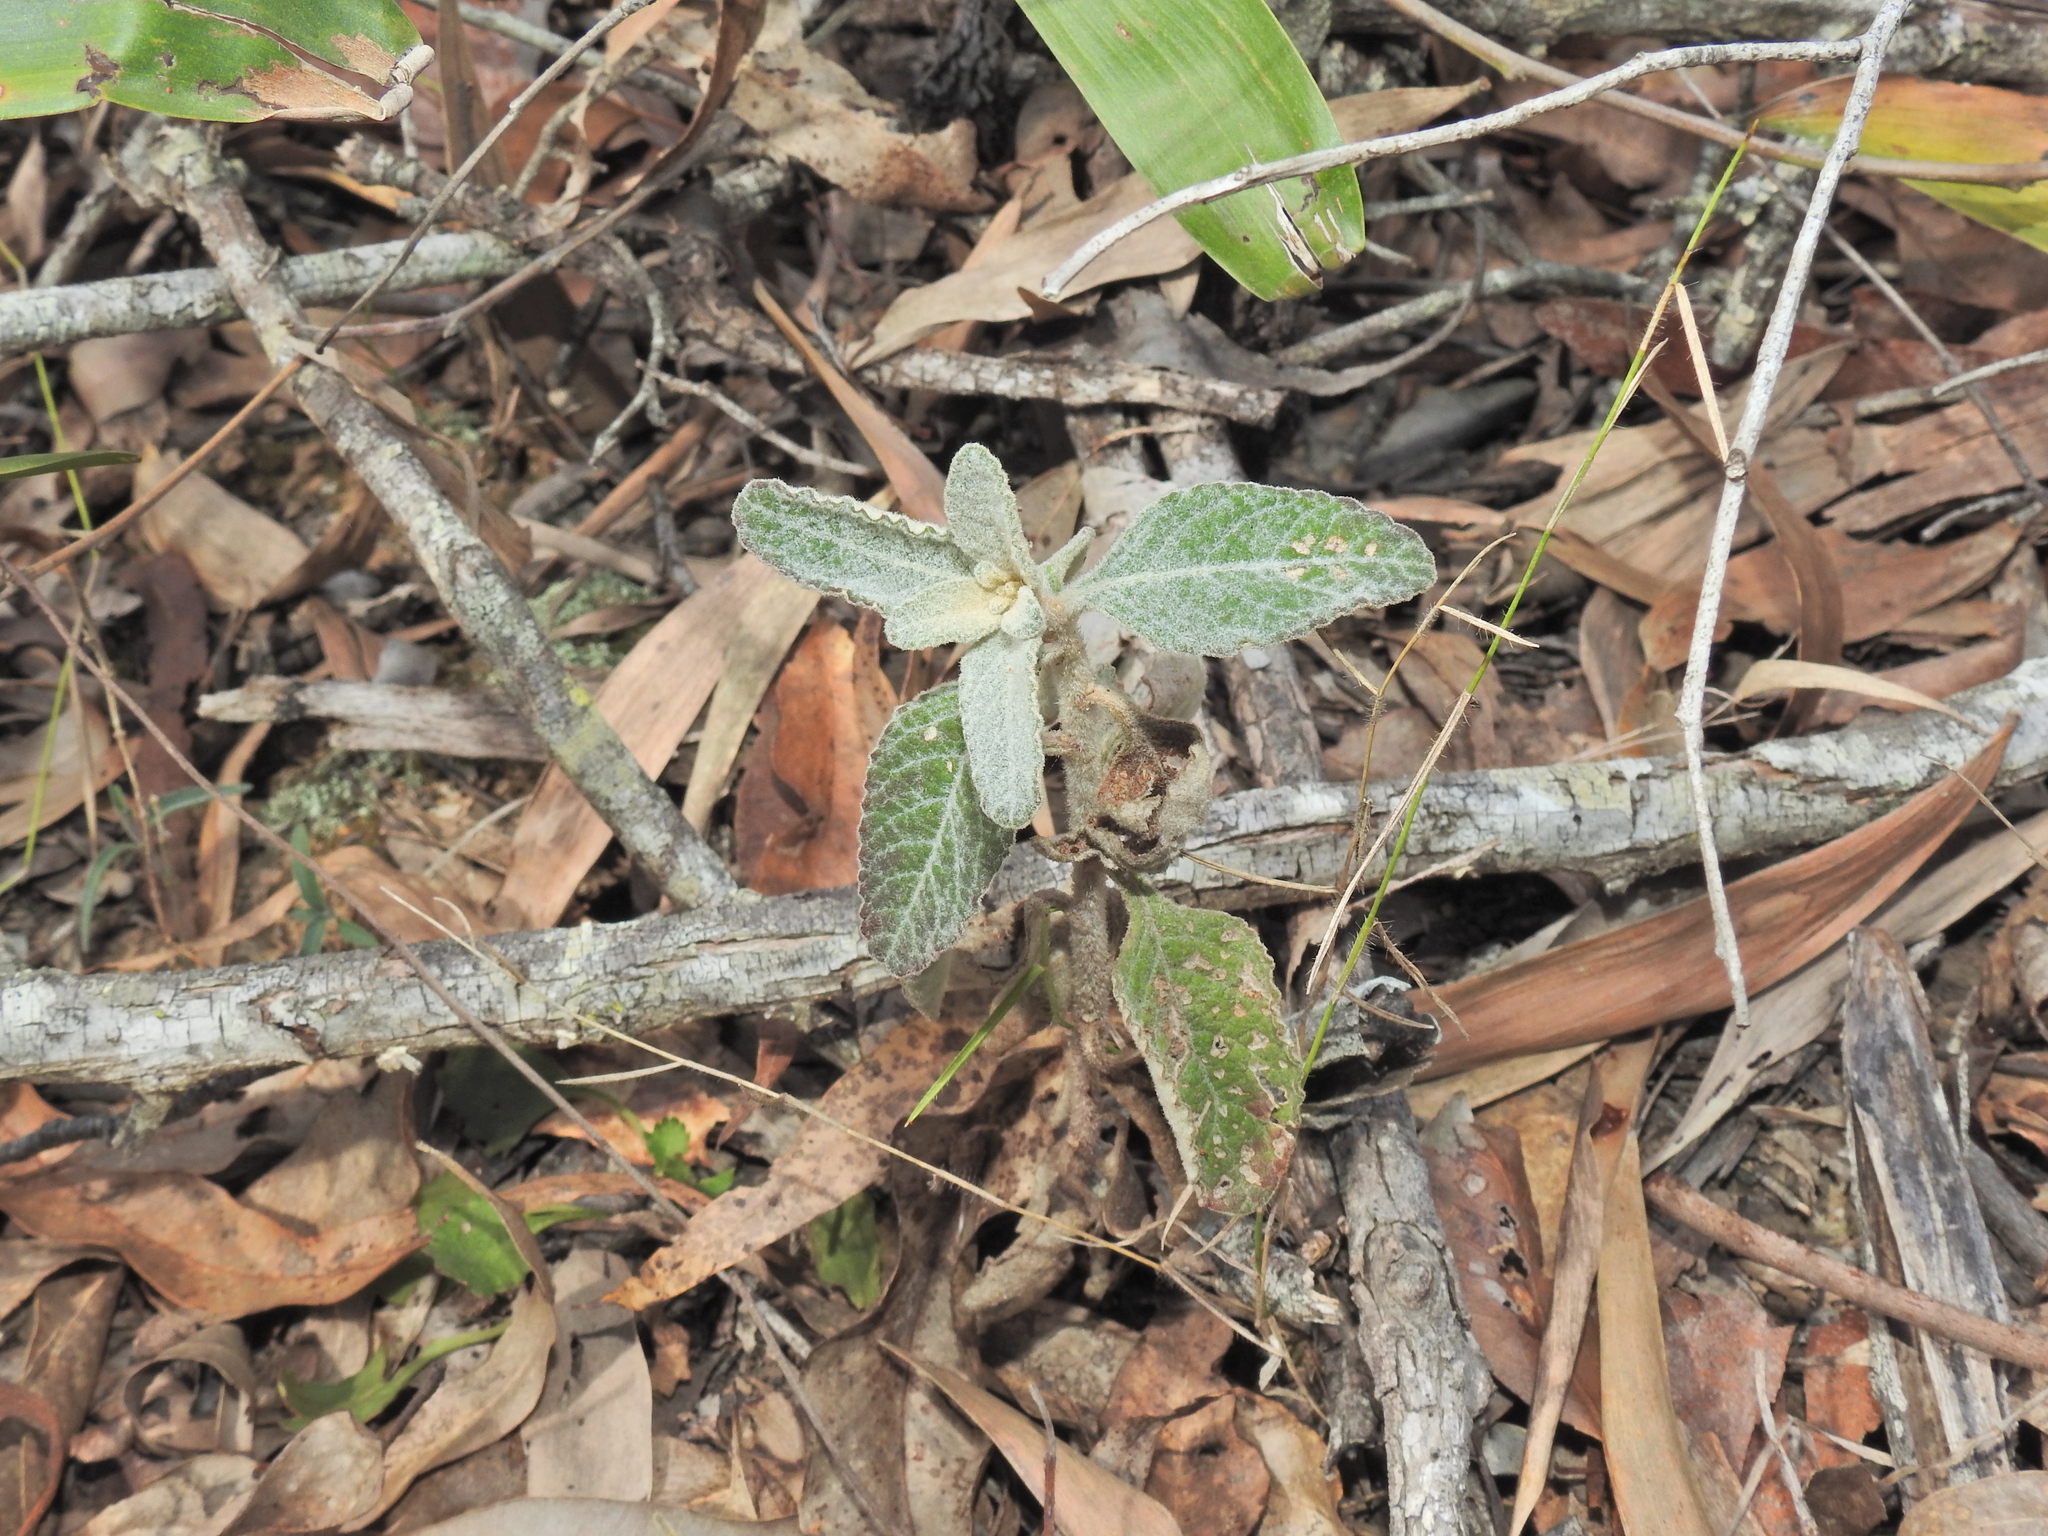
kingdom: Plantae
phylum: Tracheophyta
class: Magnoliopsida
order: Asterales
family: Asteraceae
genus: Cyanthillium
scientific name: Cyanthillium cinereum
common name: Little ironweed
